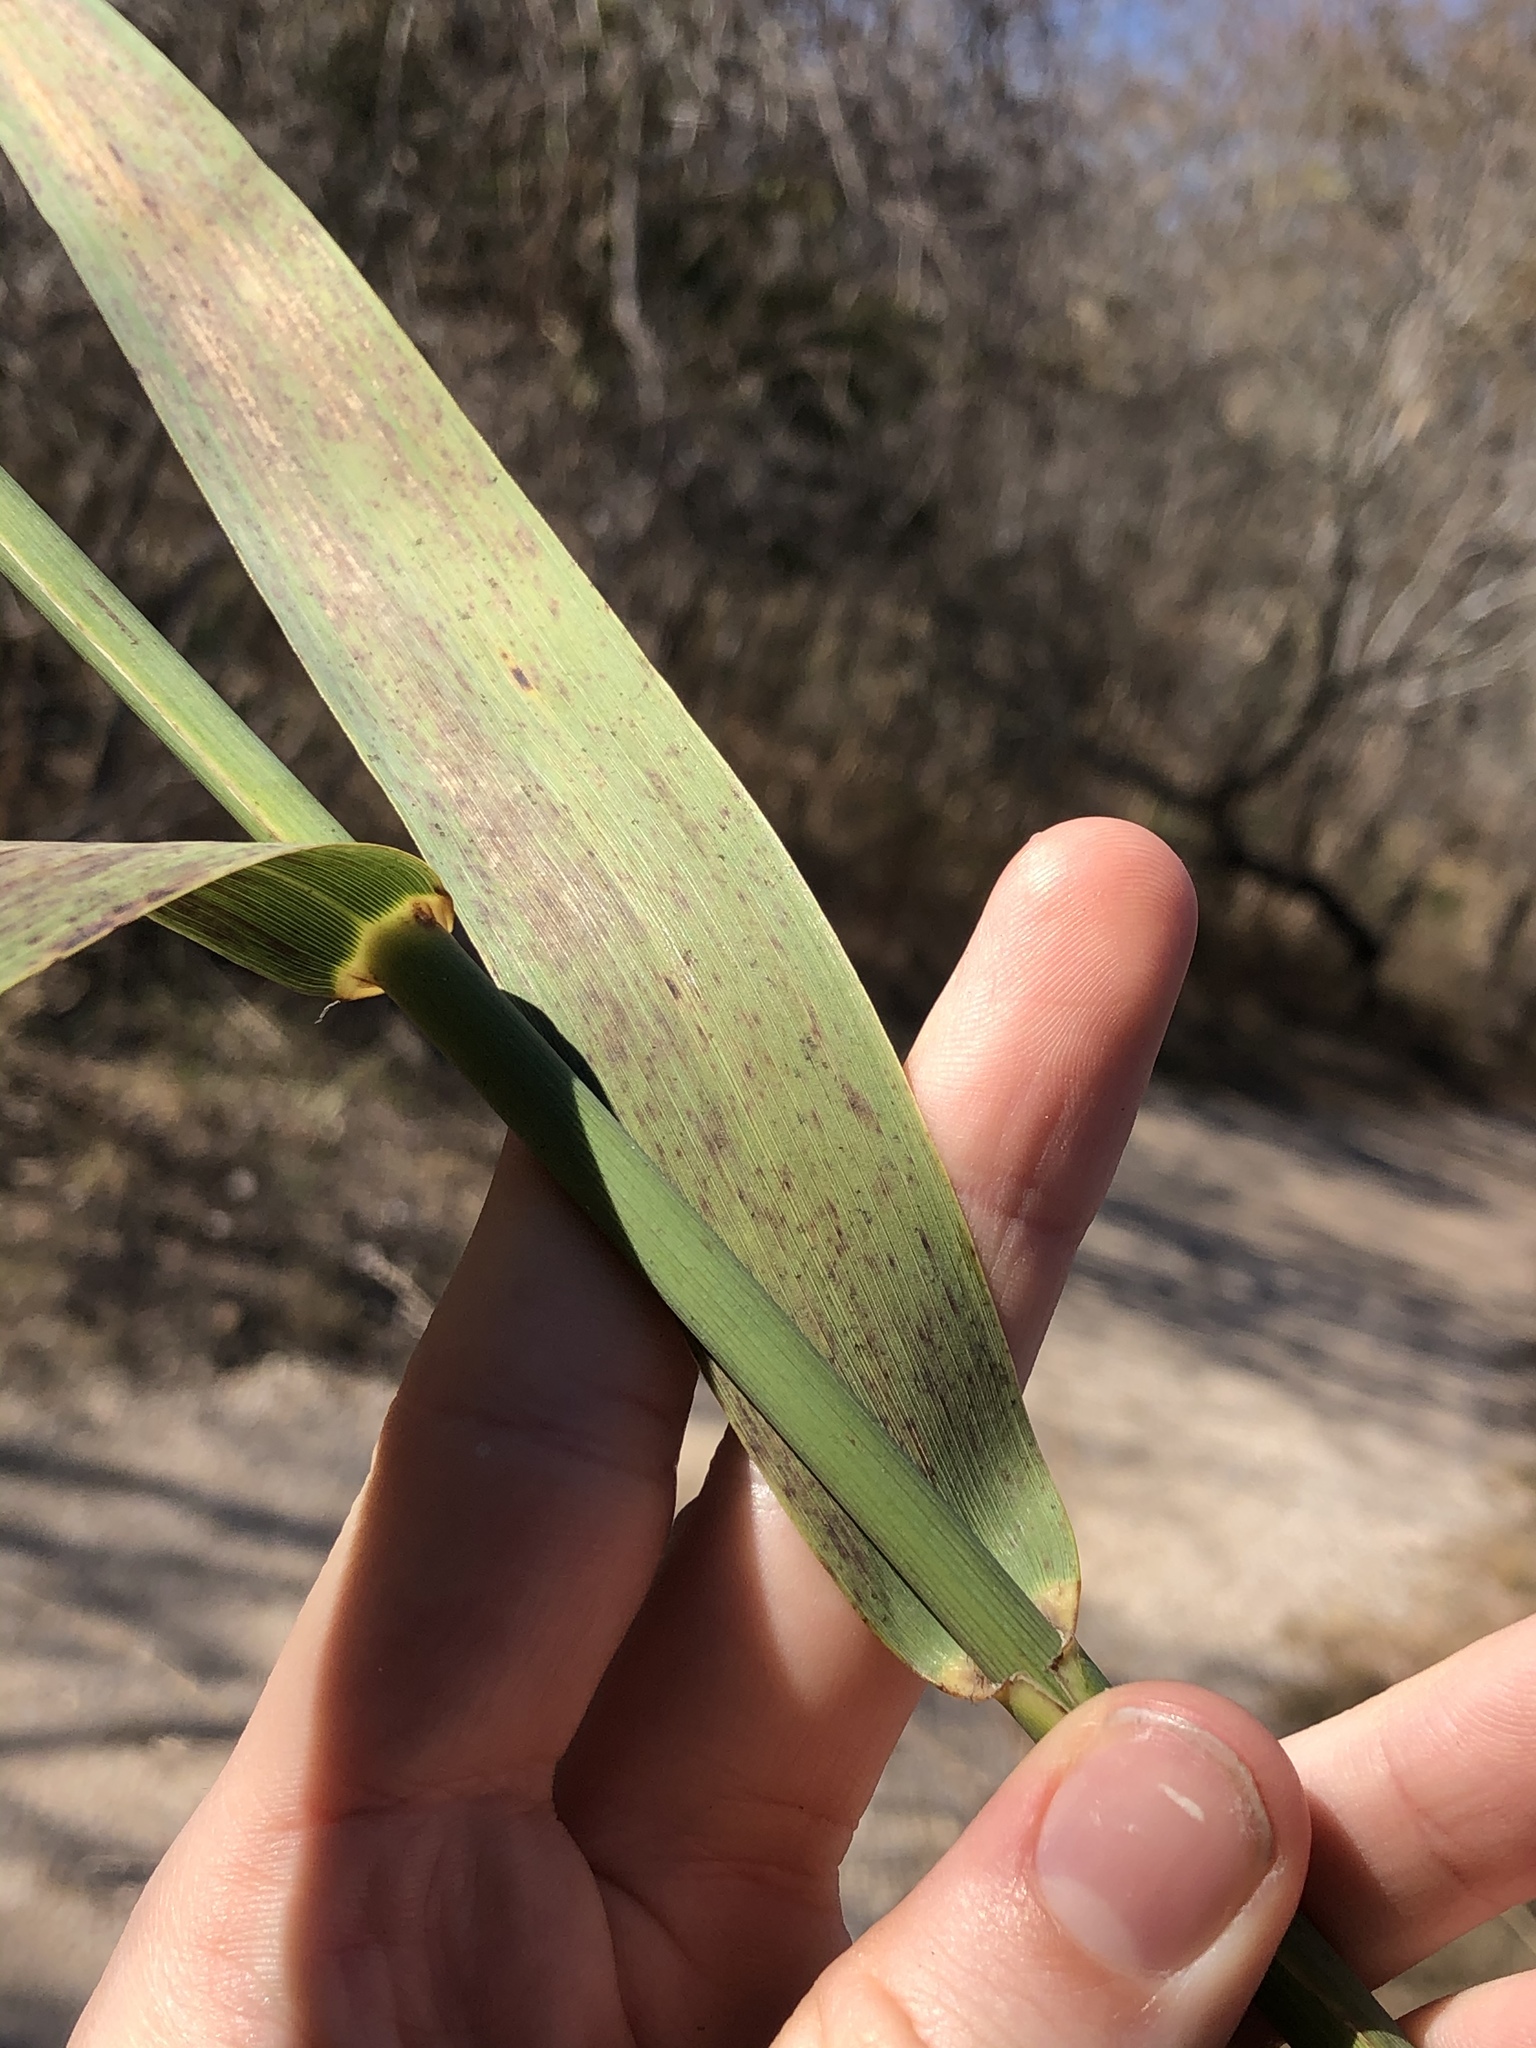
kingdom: Plantae
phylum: Tracheophyta
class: Liliopsida
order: Poales
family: Poaceae
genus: Phragmites
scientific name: Phragmites australis
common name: Common reed
